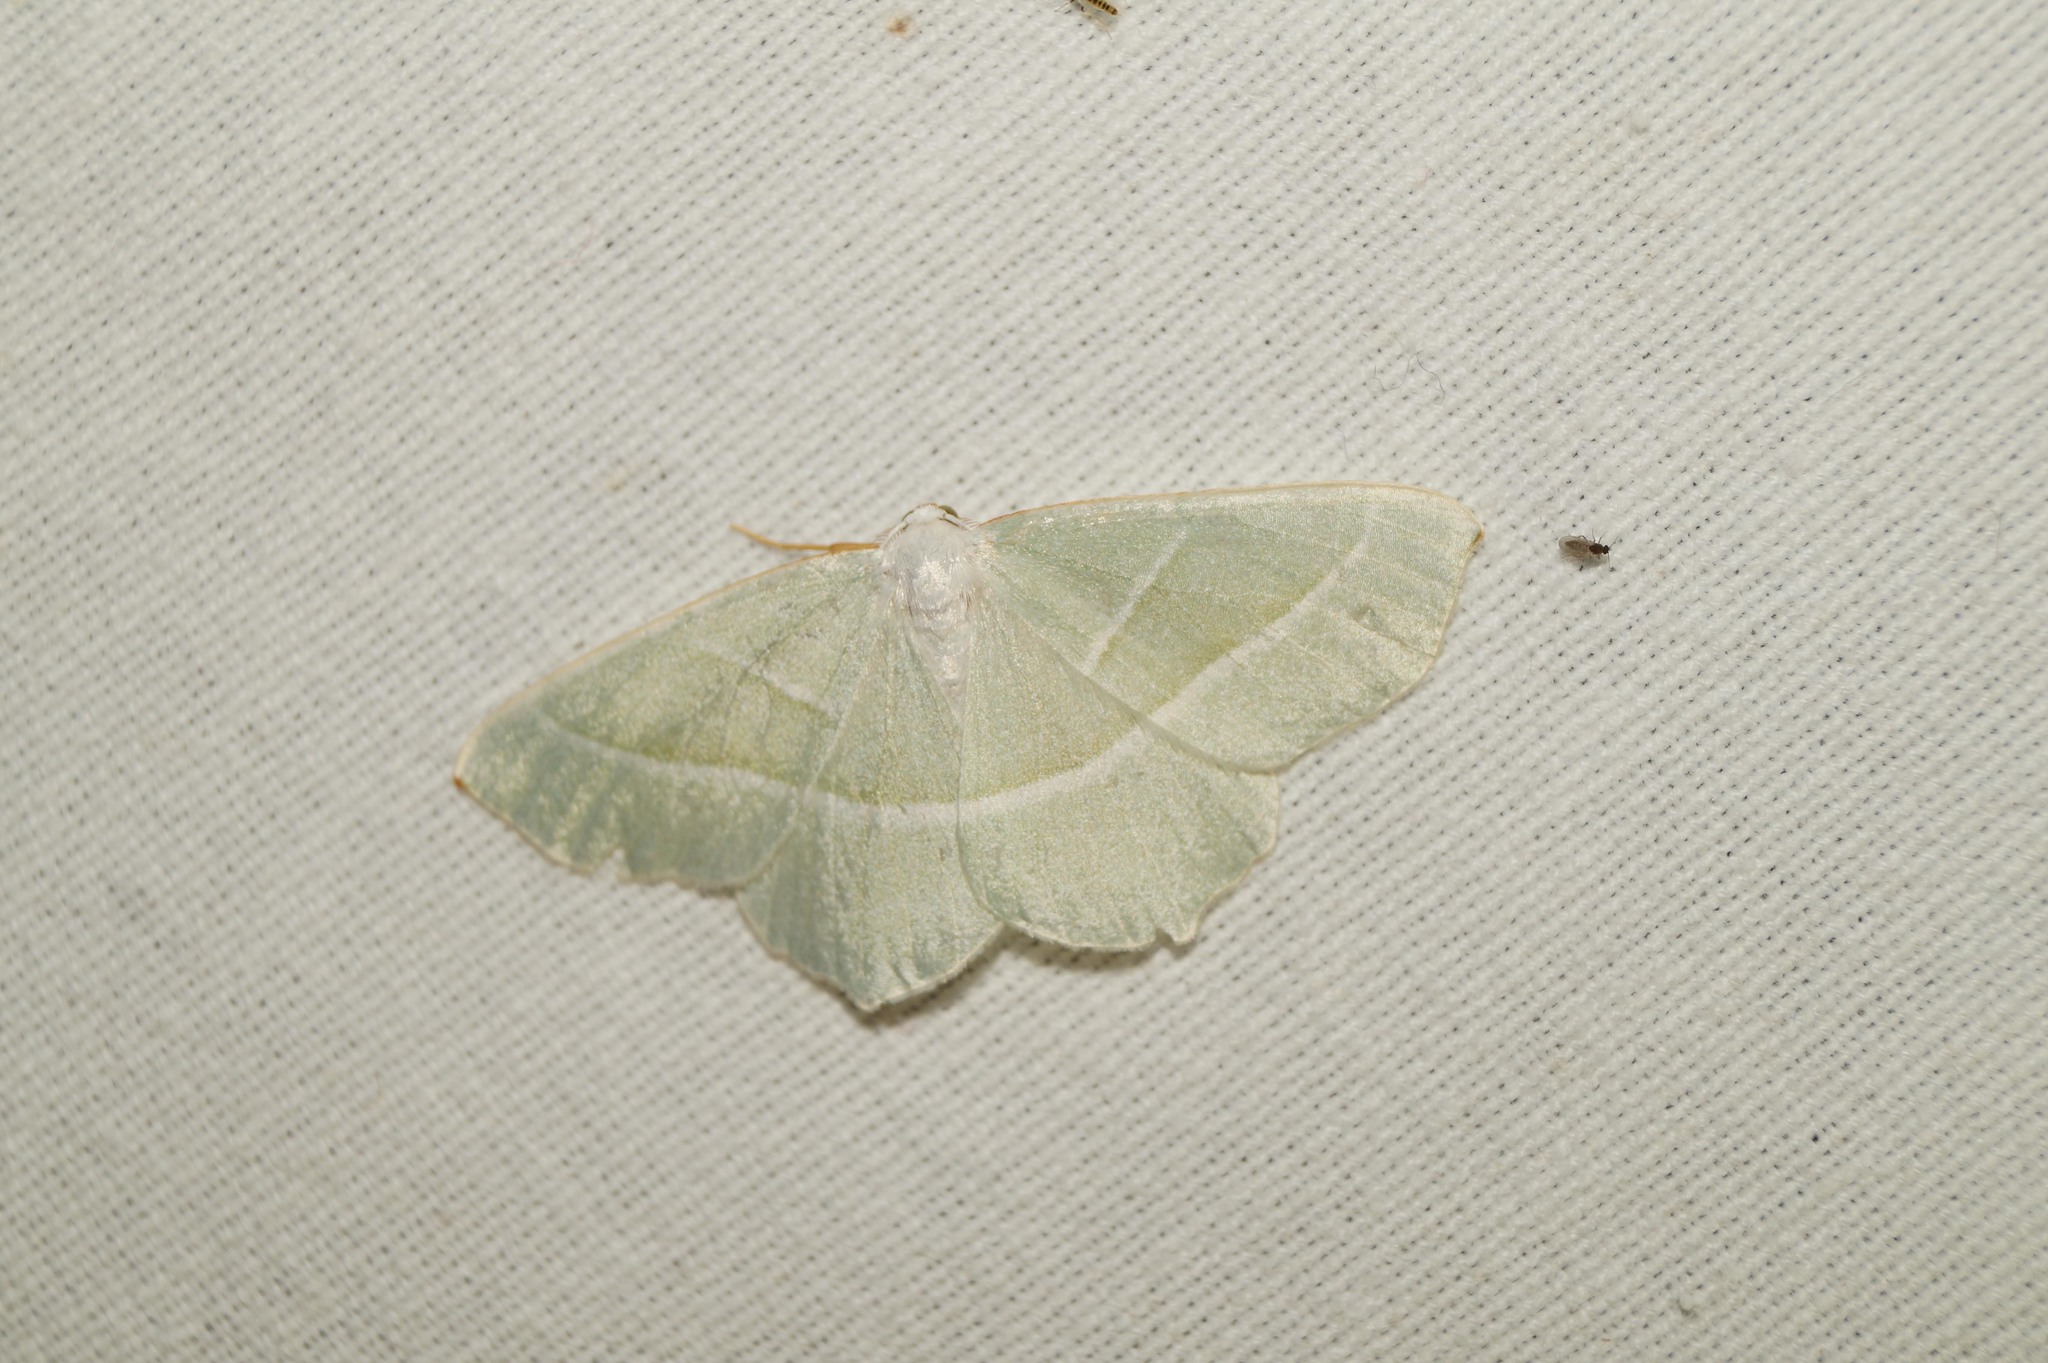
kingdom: Animalia
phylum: Arthropoda
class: Insecta
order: Lepidoptera
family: Geometridae
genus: Campaea
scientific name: Campaea margaritaria
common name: Light emerald
